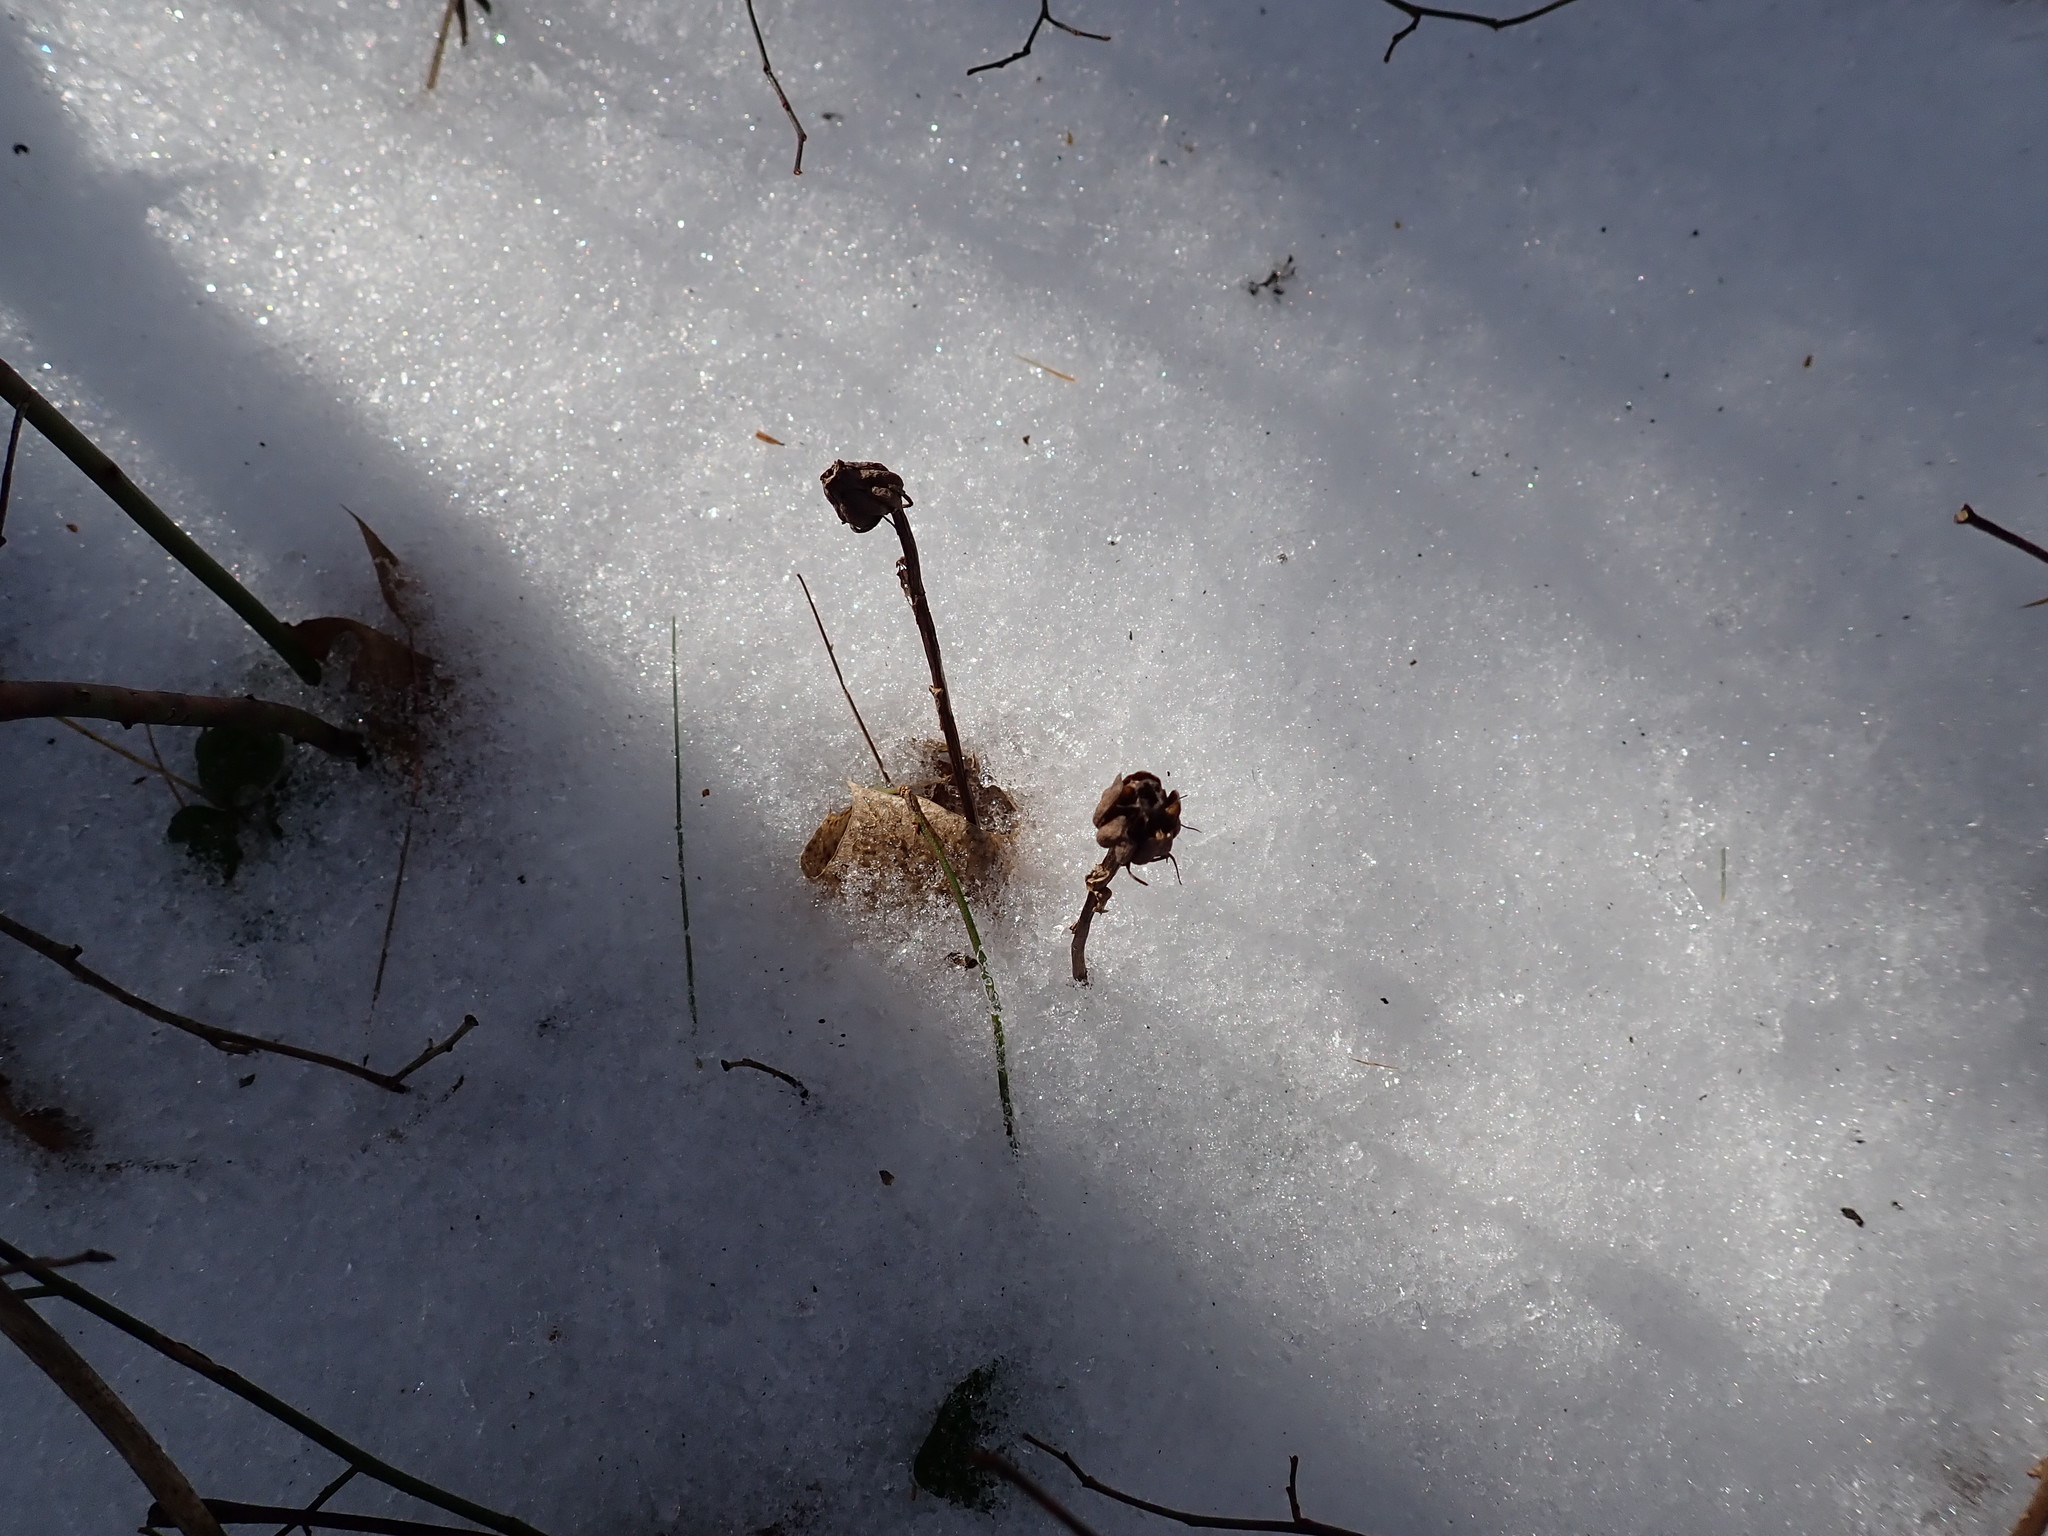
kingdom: Plantae
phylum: Tracheophyta
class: Magnoliopsida
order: Ericales
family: Ericaceae
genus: Monotropa
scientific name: Monotropa uniflora
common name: Convulsion root
